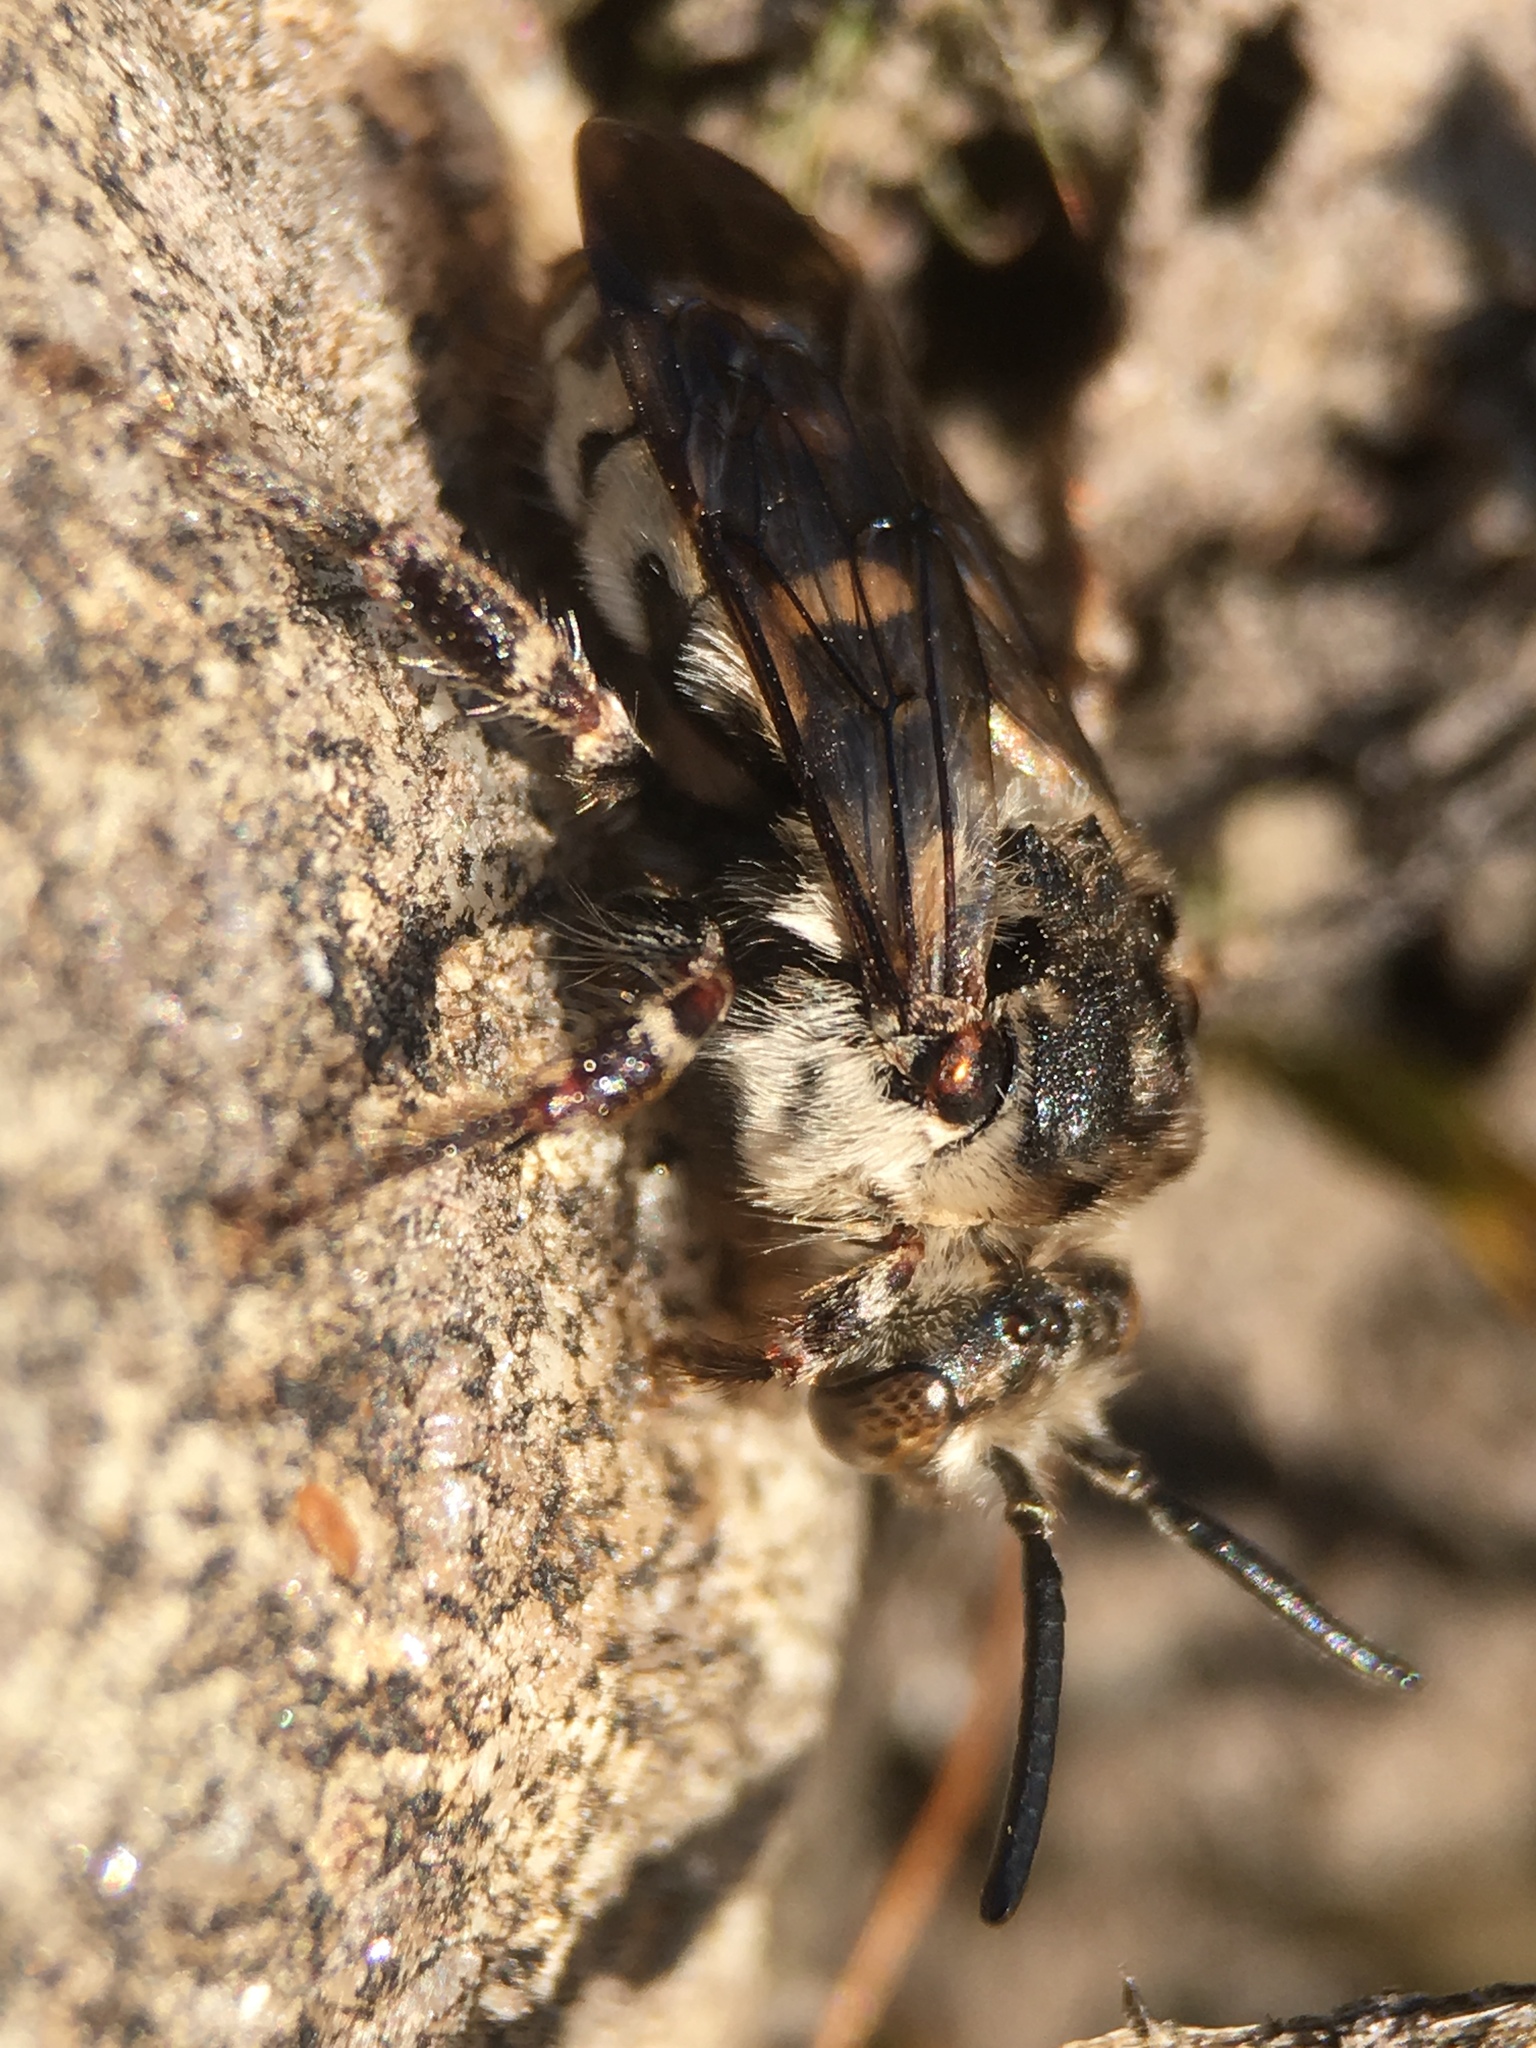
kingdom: Animalia
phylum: Arthropoda
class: Insecta
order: Hymenoptera
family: Apidae
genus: Brachymelecta
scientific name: Brachymelecta californica
